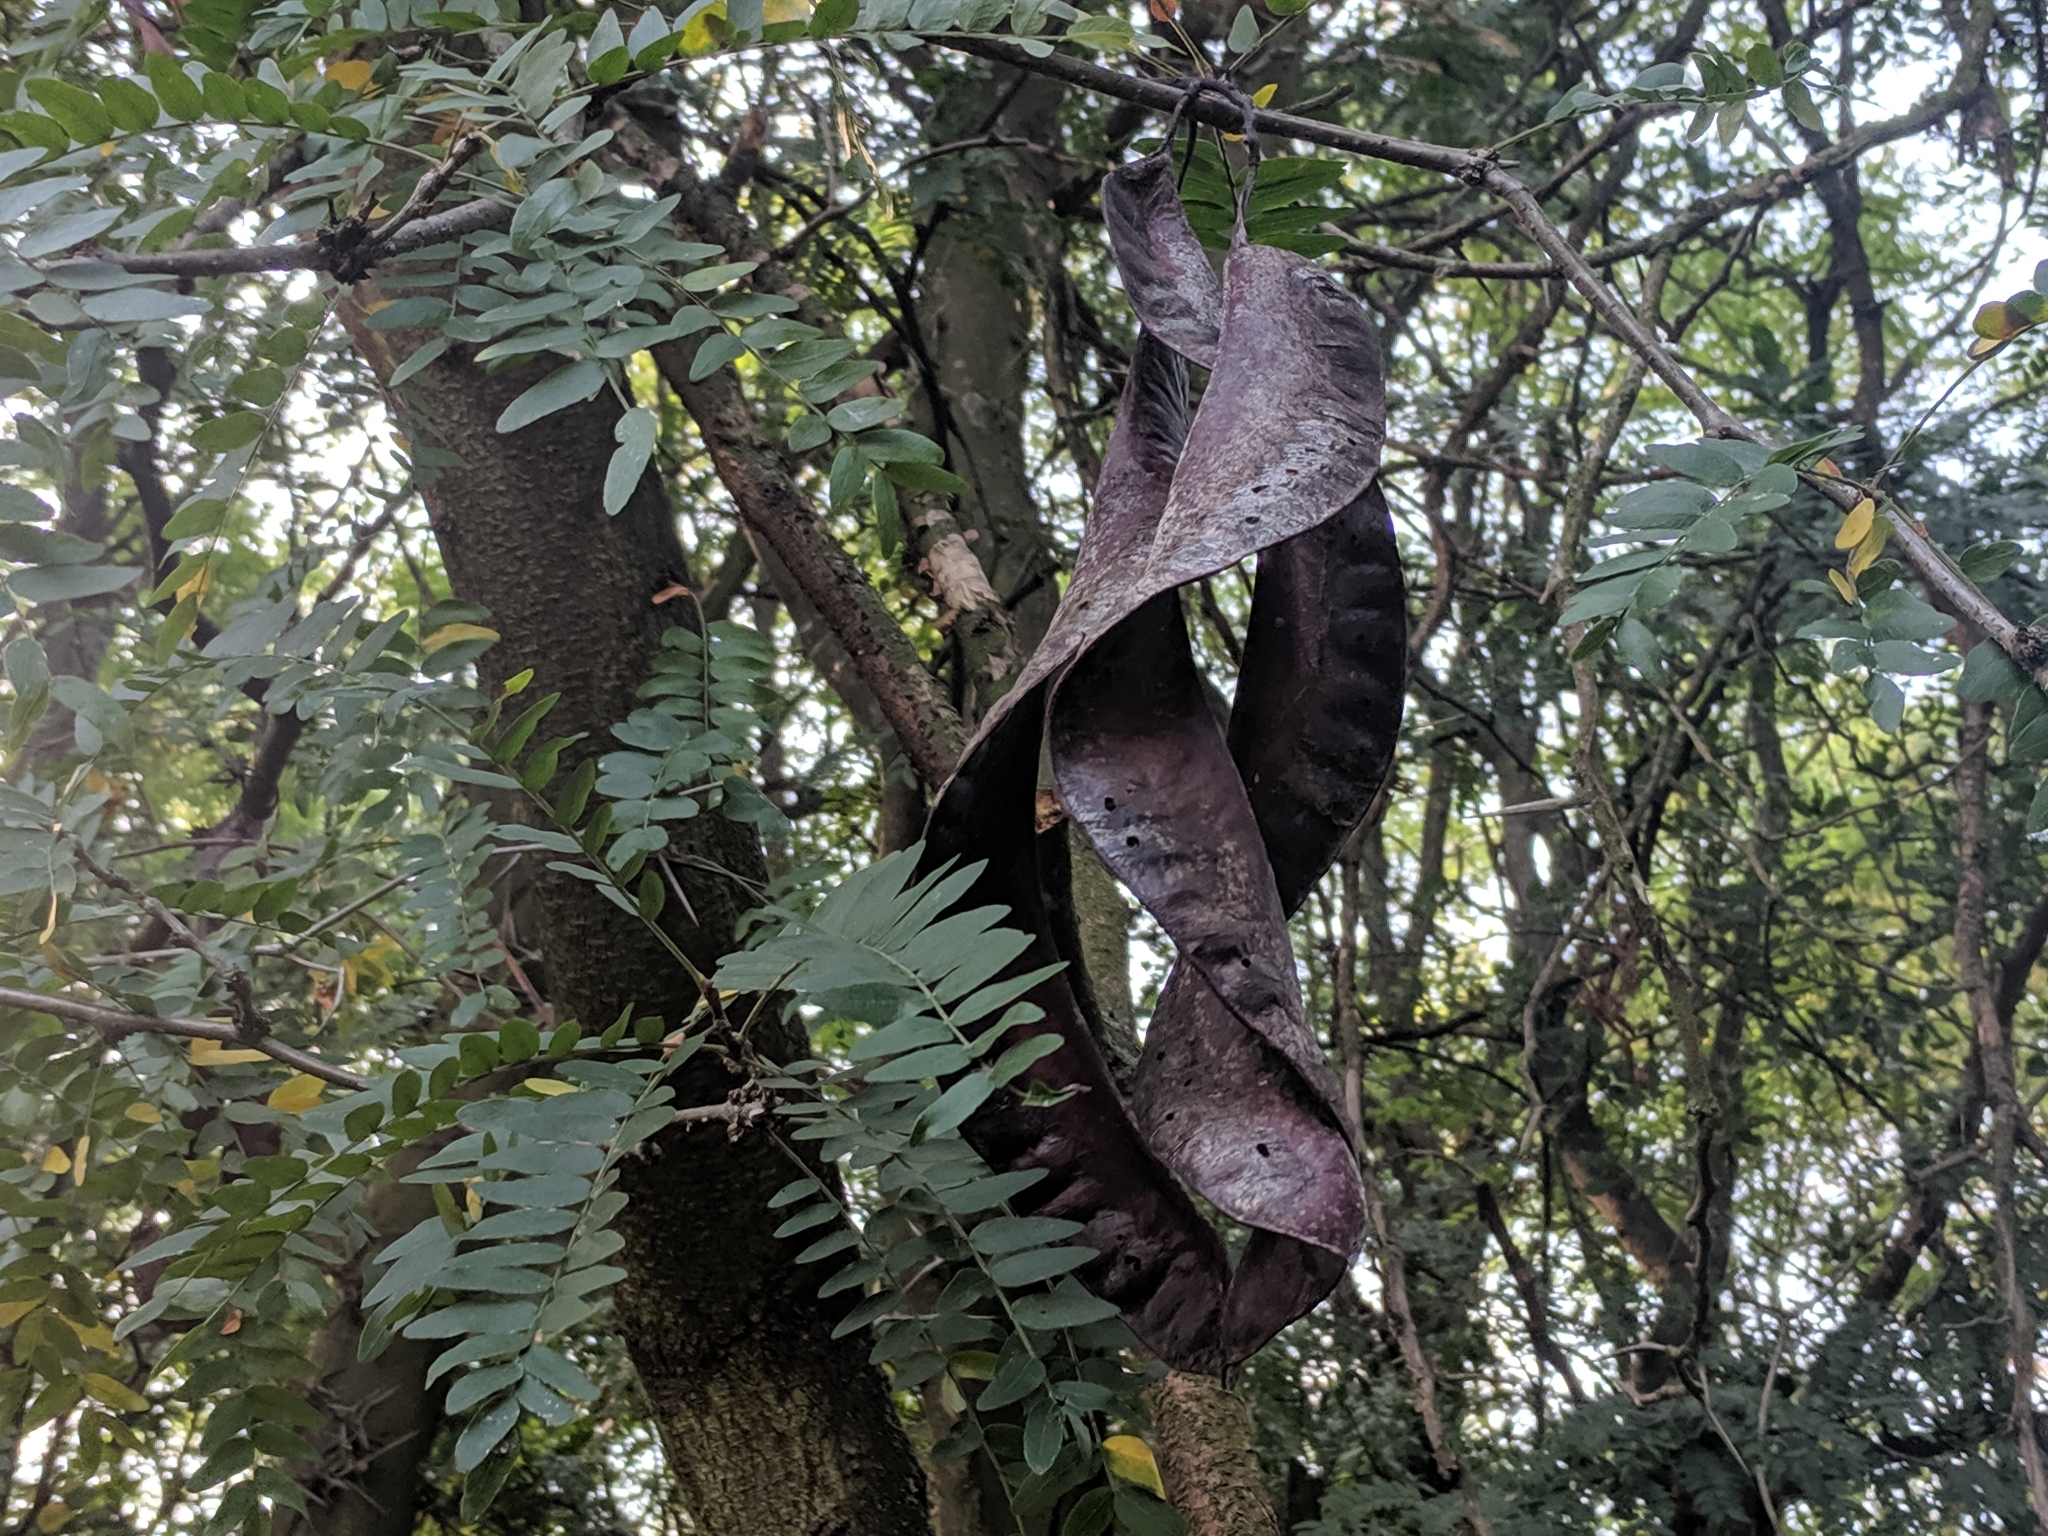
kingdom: Plantae
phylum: Tracheophyta
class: Magnoliopsida
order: Fabales
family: Fabaceae
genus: Gleditsia
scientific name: Gleditsia triacanthos
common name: Common honeylocust
